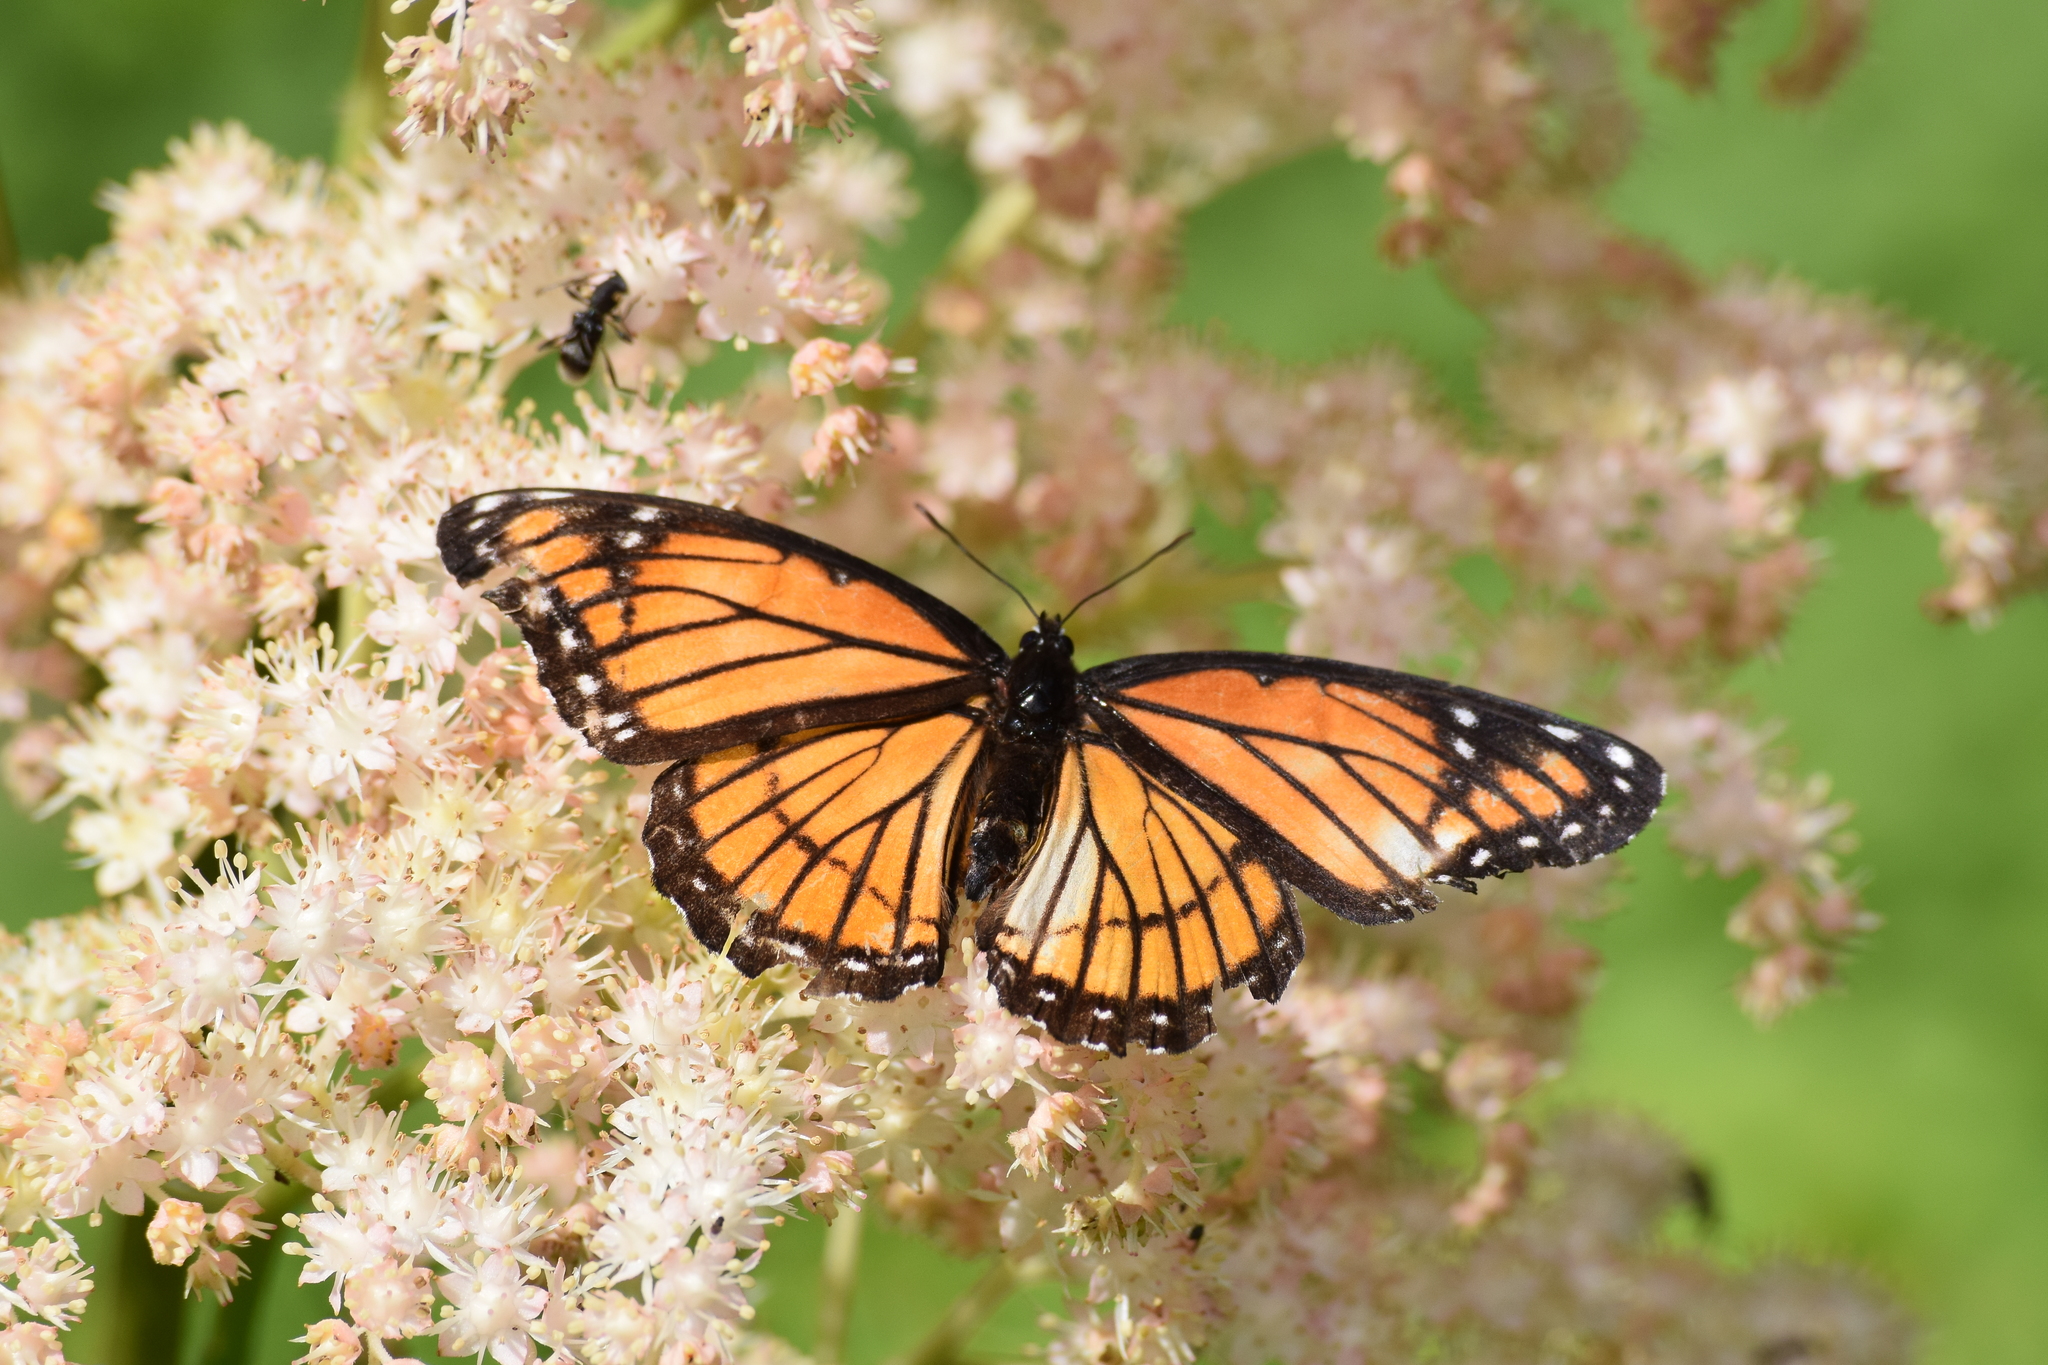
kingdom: Animalia
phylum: Arthropoda
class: Insecta
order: Lepidoptera
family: Nymphalidae
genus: Limenitis
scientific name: Limenitis archippus
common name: Viceroy
